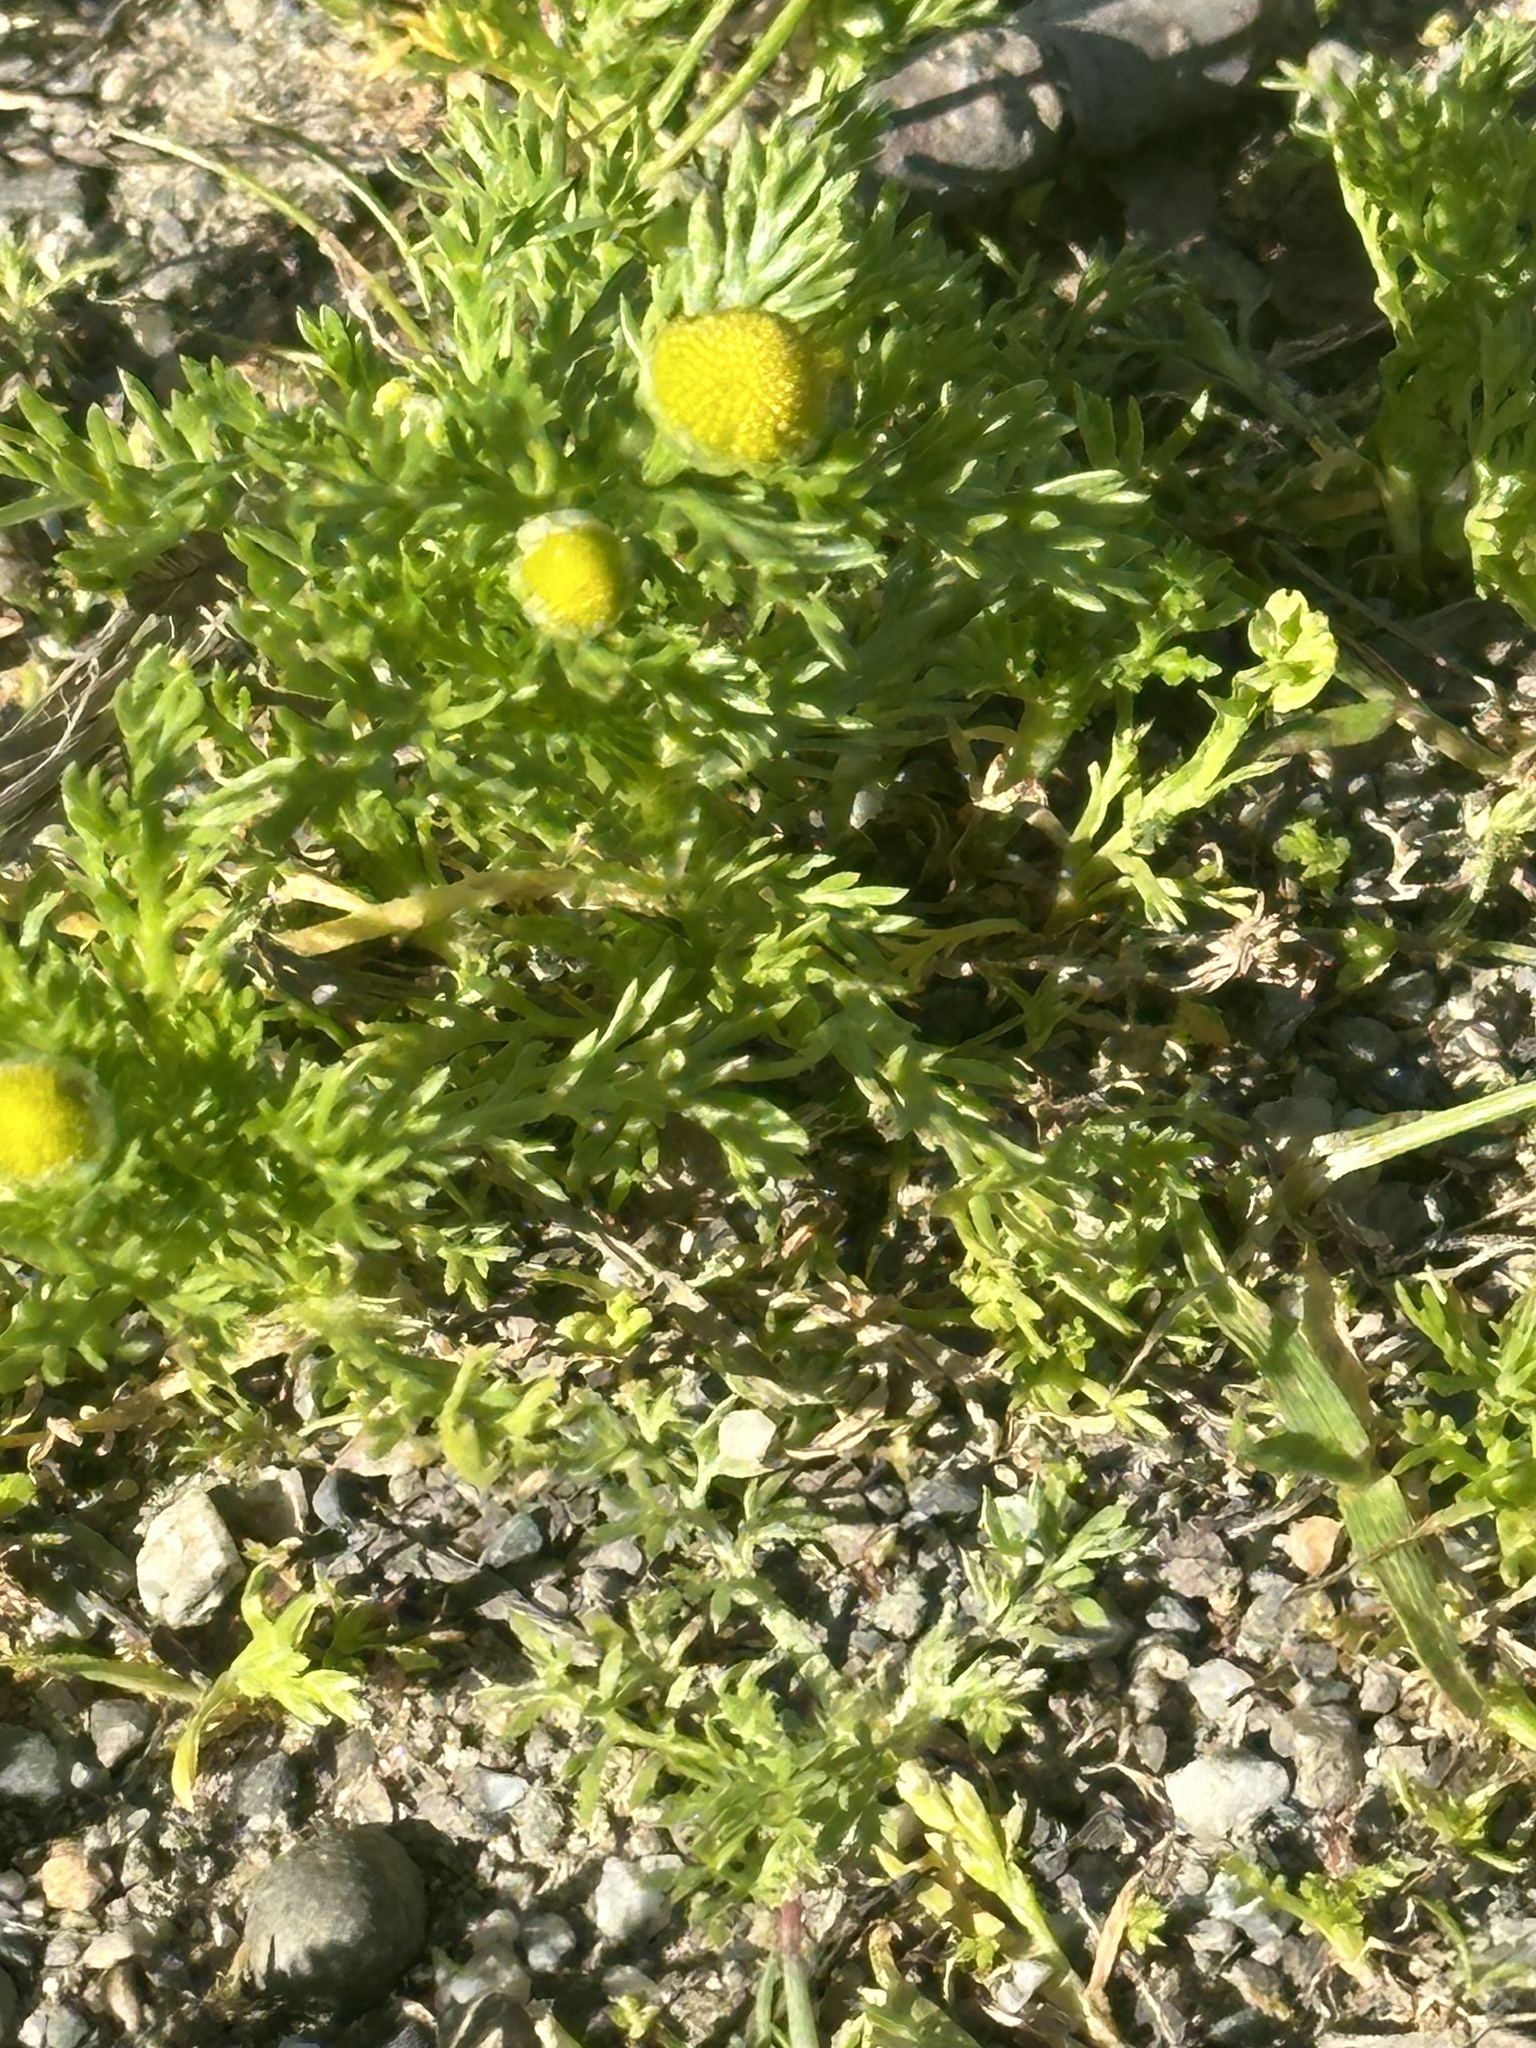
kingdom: Plantae
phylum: Tracheophyta
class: Magnoliopsida
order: Asterales
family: Asteraceae
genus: Matricaria
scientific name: Matricaria discoidea
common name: Disc mayweed
